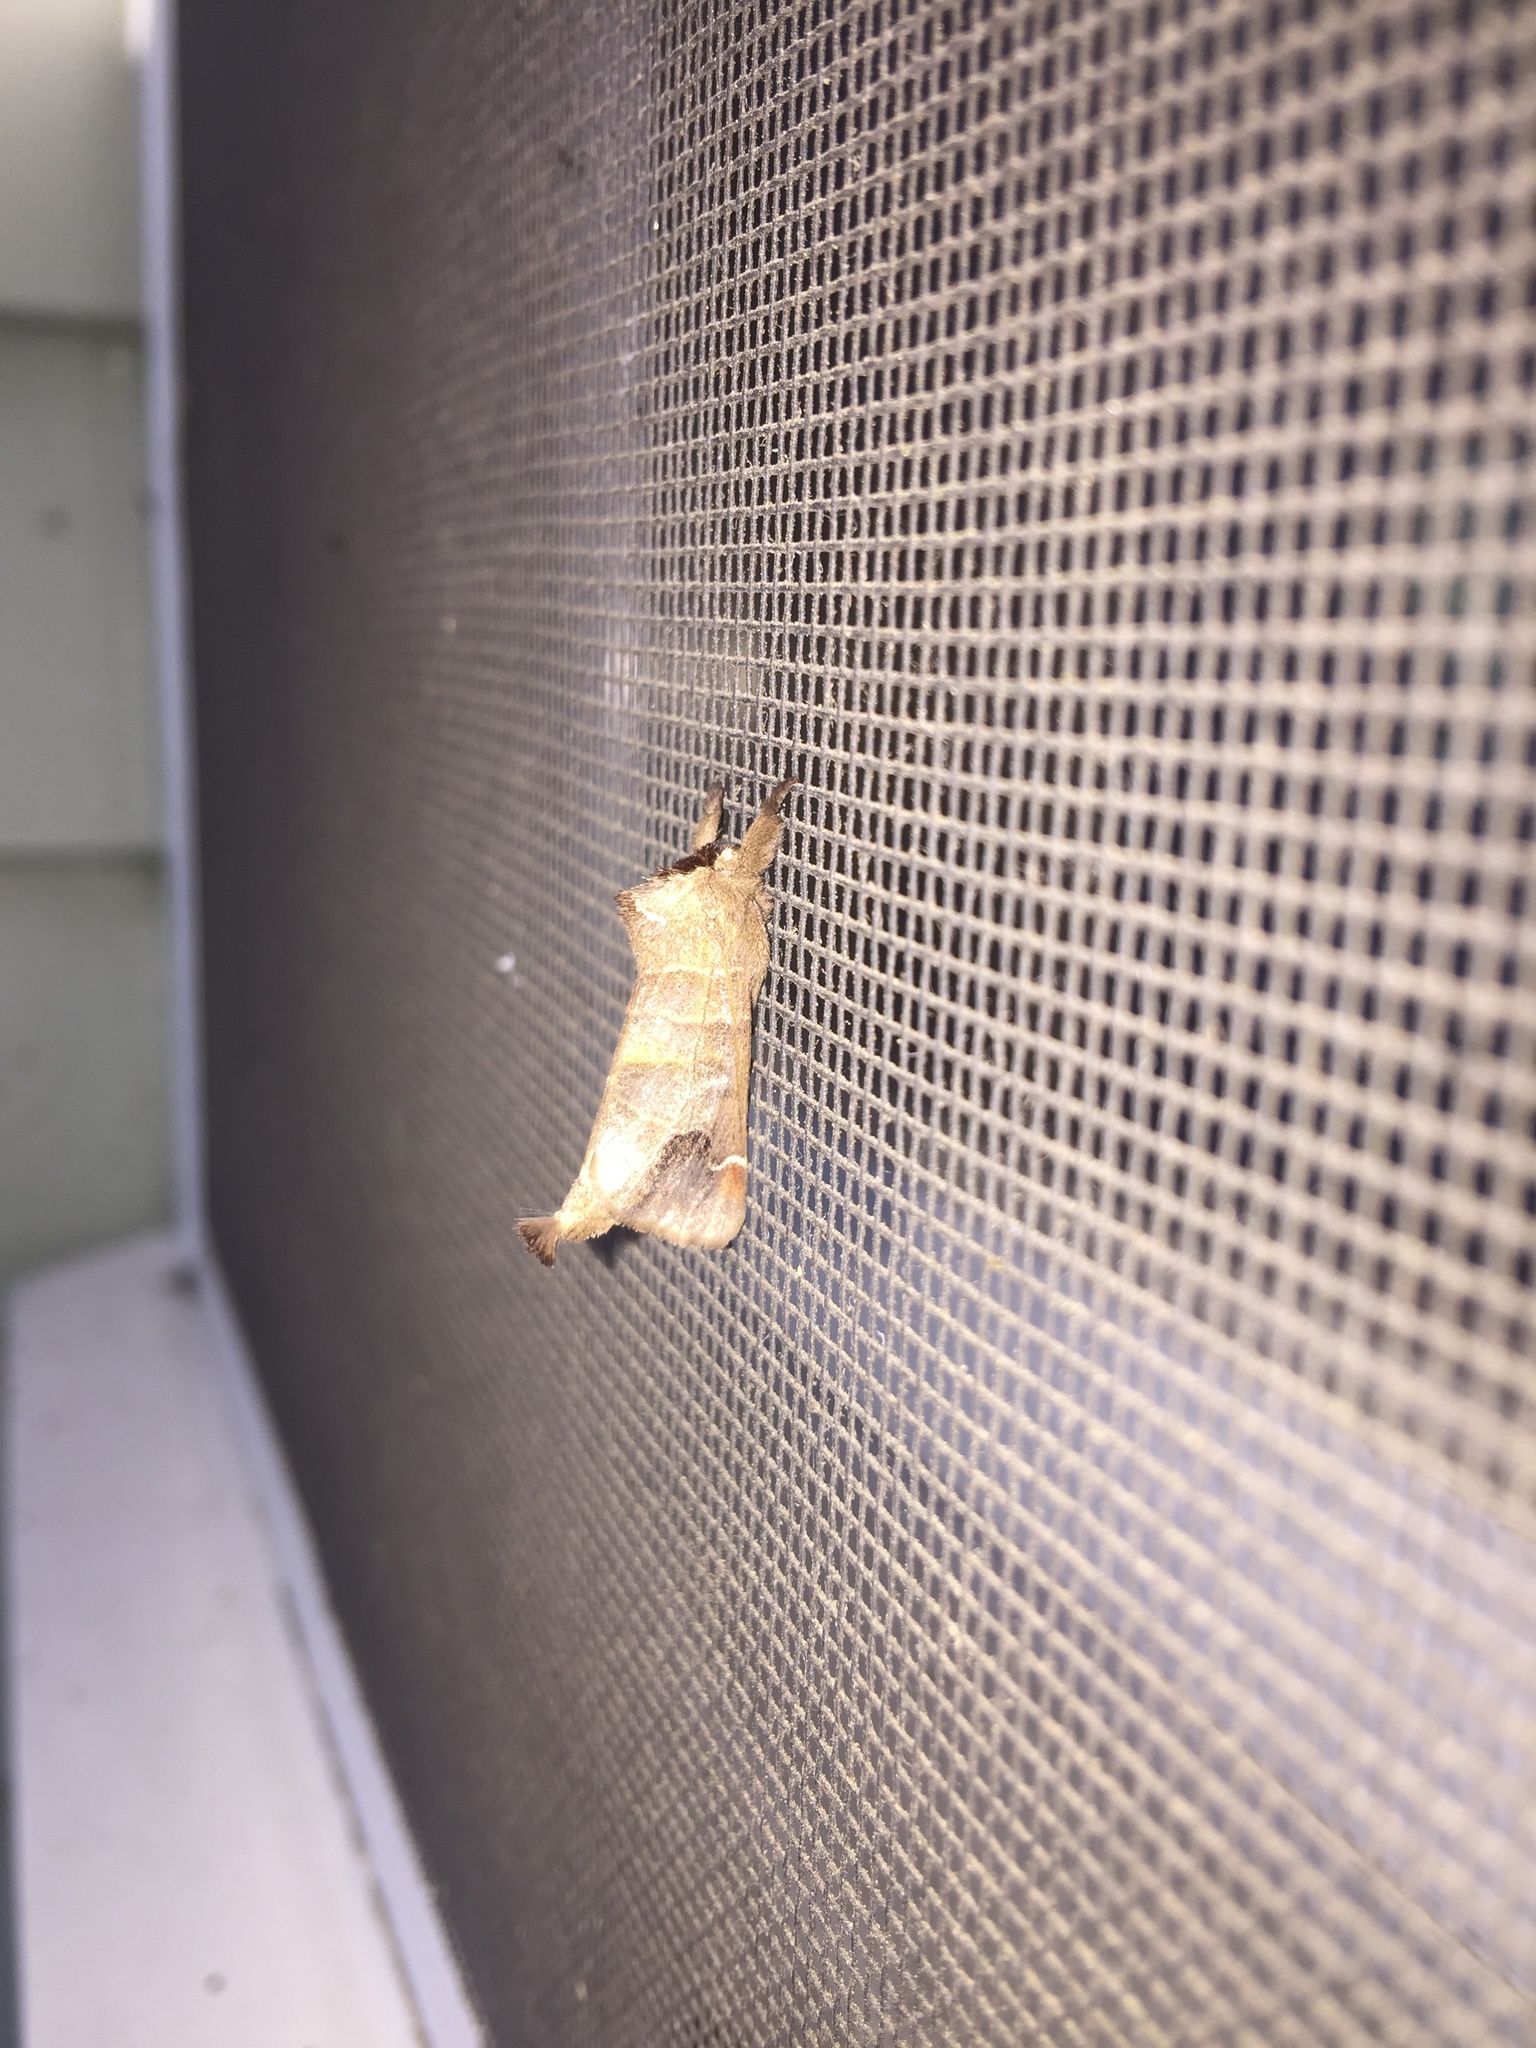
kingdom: Animalia
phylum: Arthropoda
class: Insecta
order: Lepidoptera
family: Notodontidae
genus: Clostera
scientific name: Clostera albosigma
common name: Sigmoid prominent
